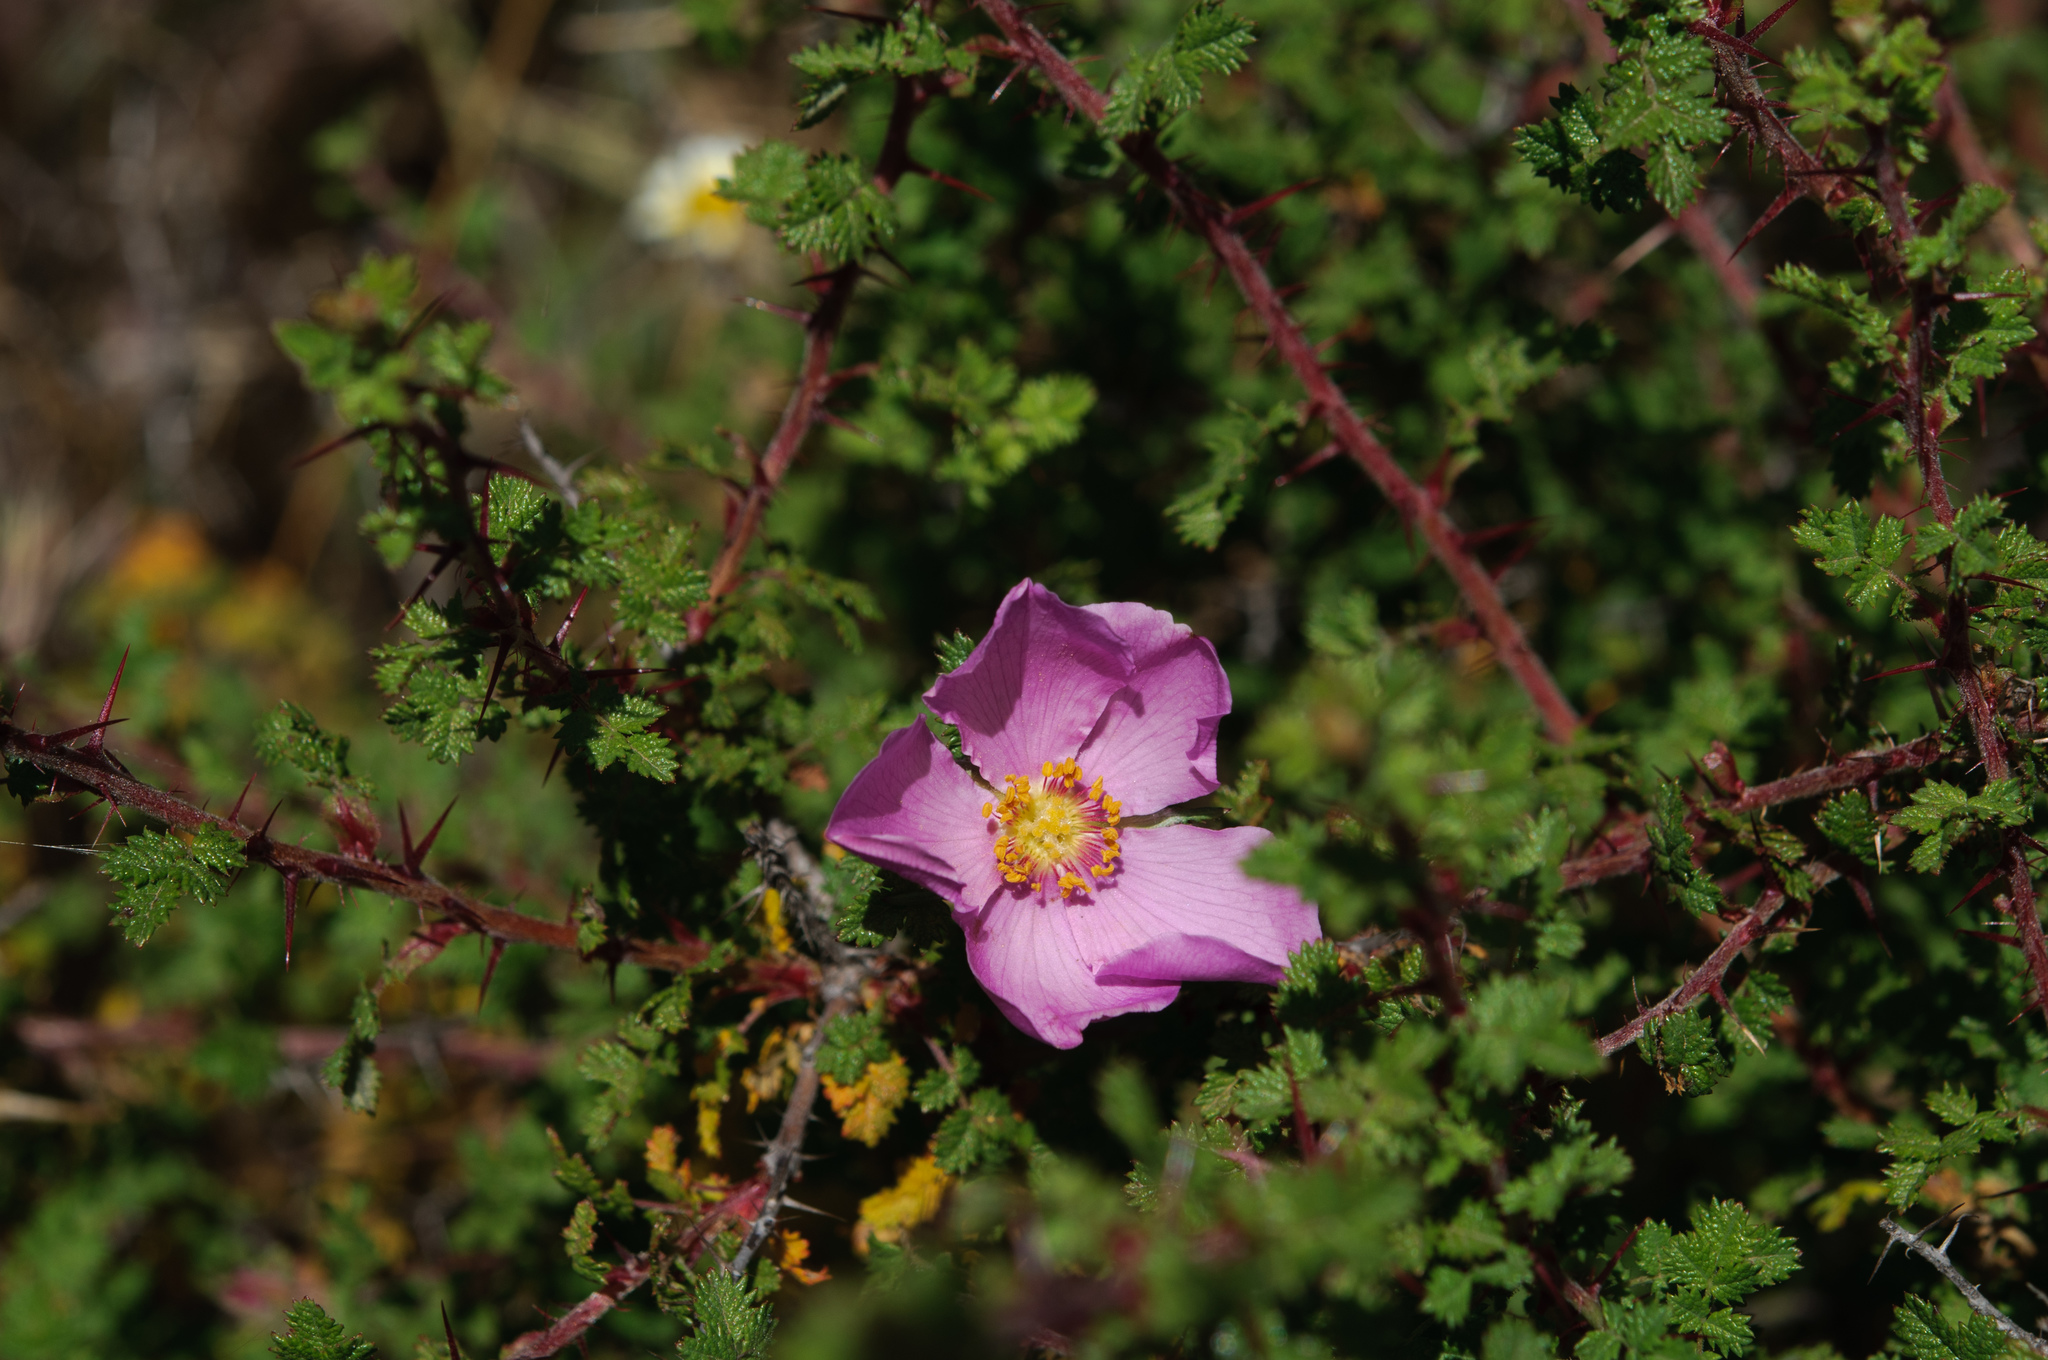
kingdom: Plantae
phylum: Tracheophyta
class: Magnoliopsida
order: Rosales
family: Rosaceae
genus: Rosa
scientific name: Rosa minutifolia
